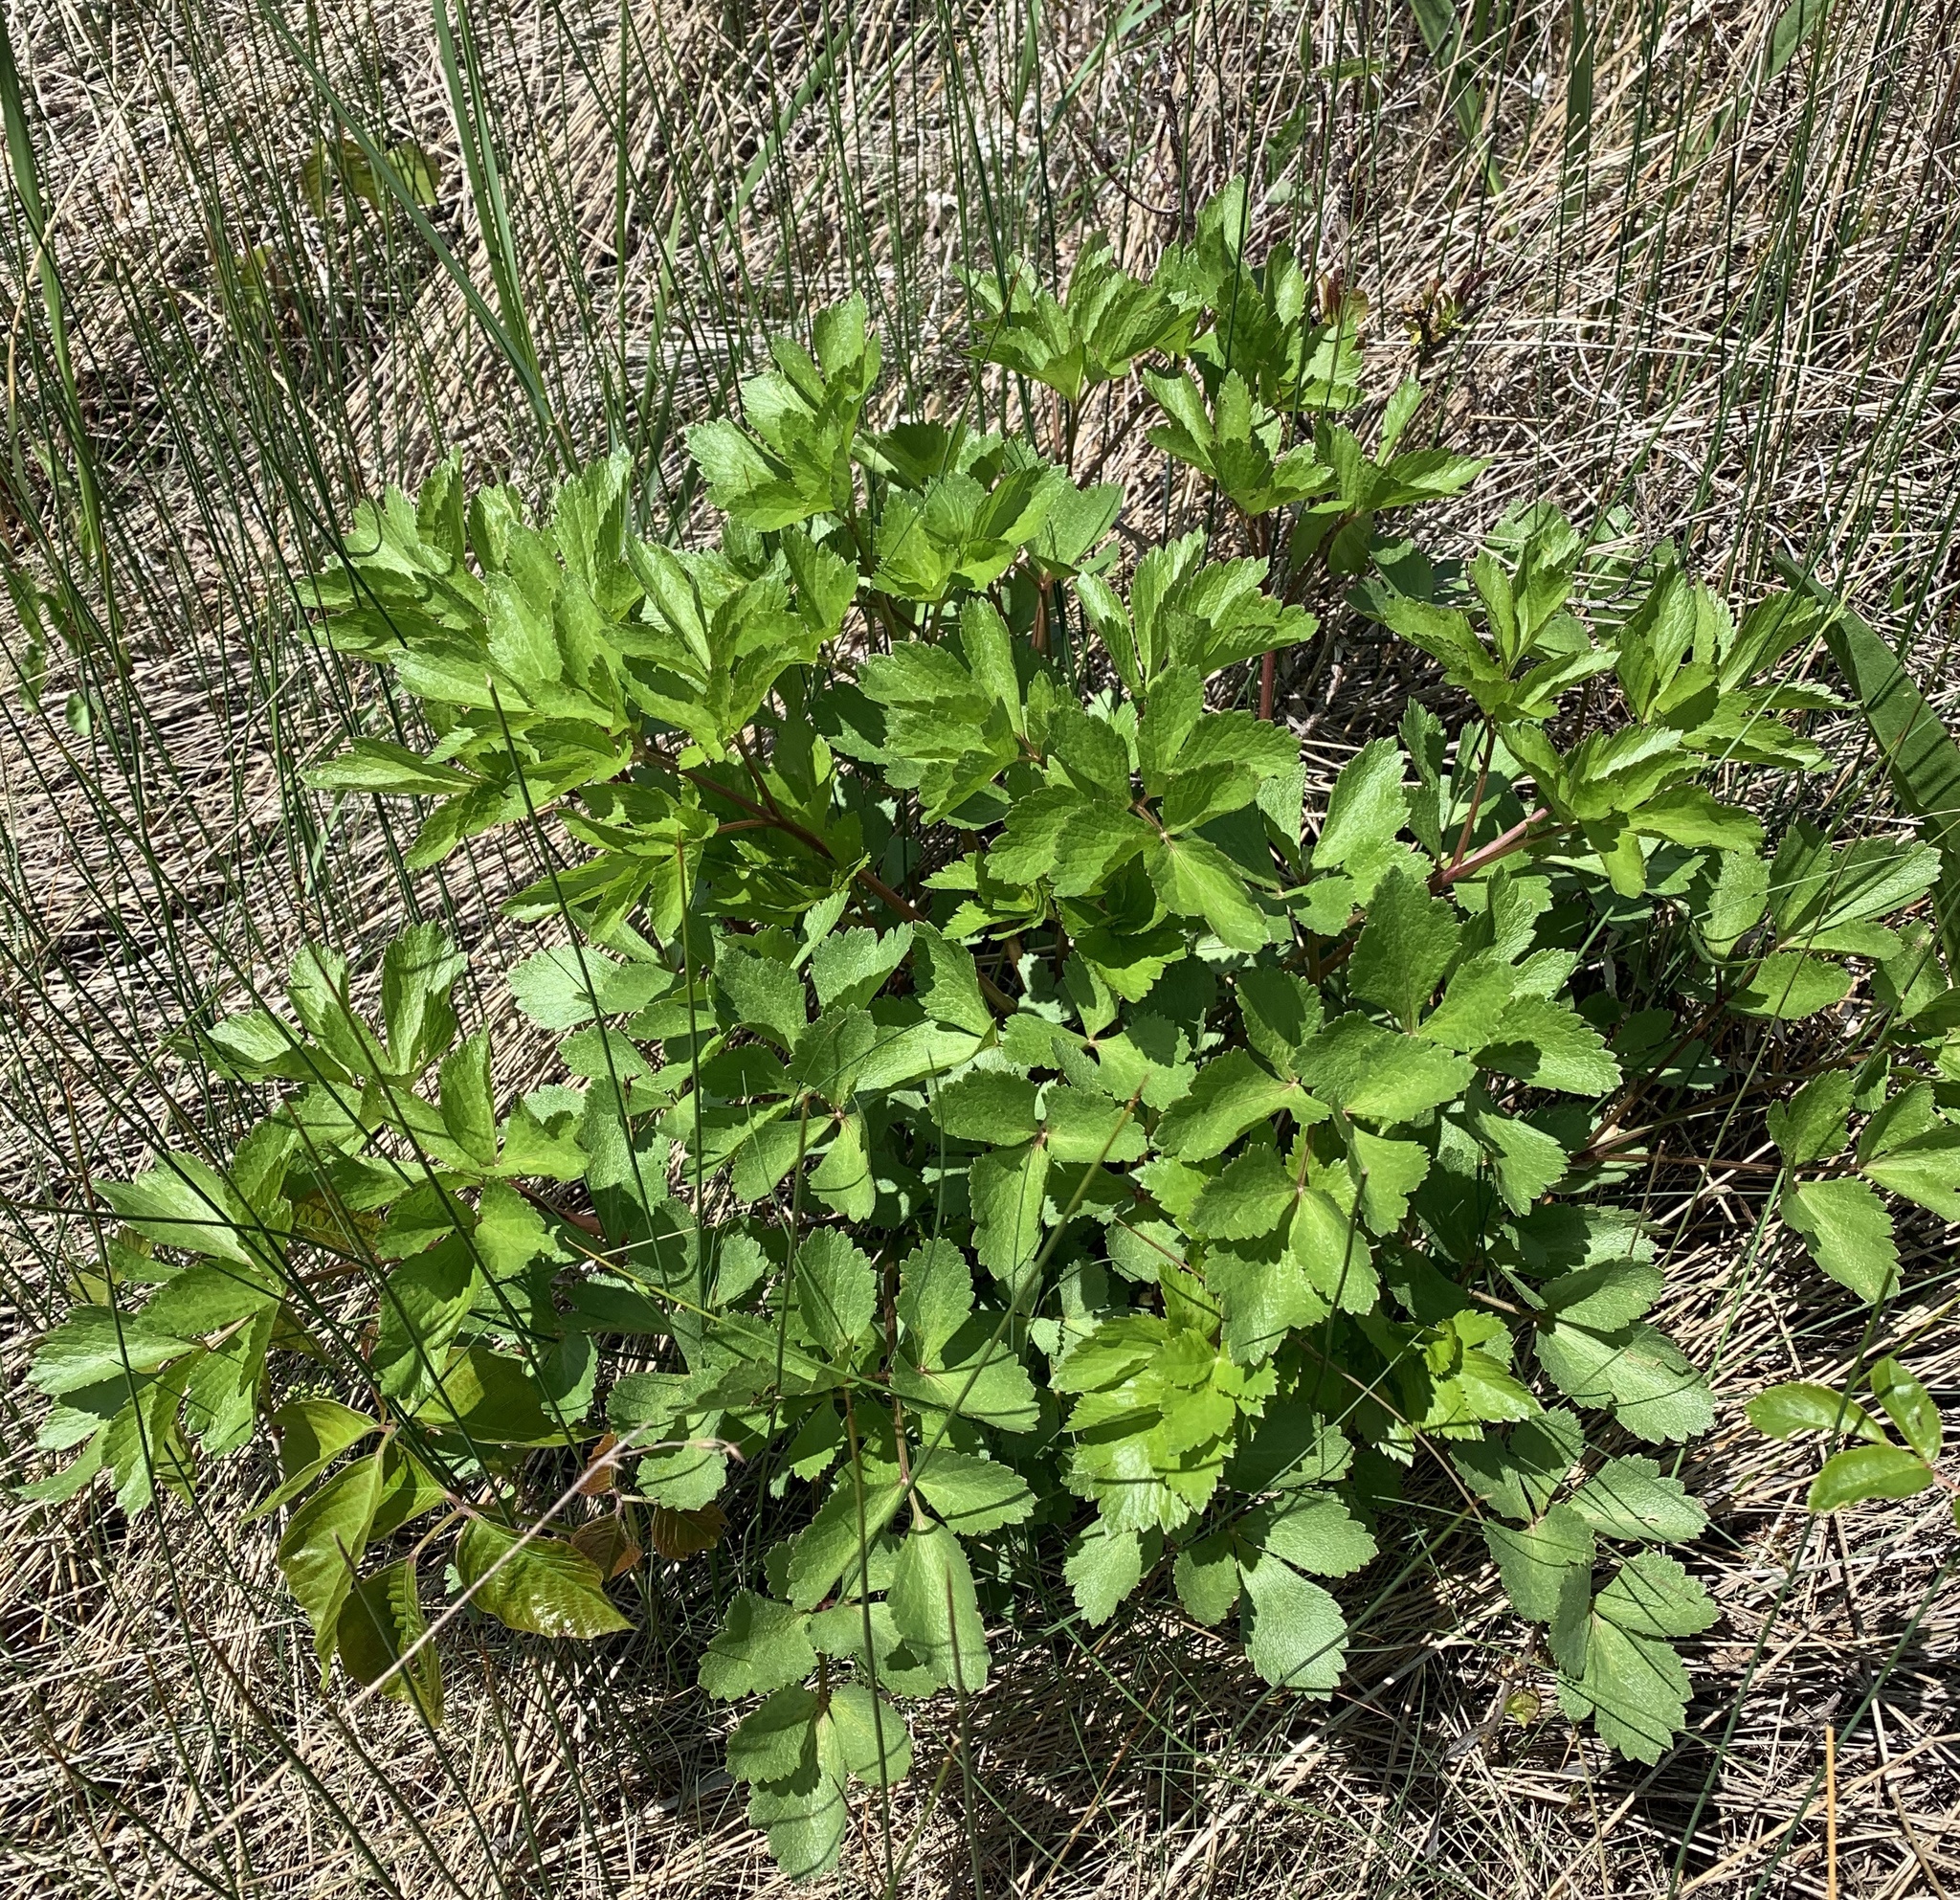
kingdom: Plantae
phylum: Tracheophyta
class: Magnoliopsida
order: Apiales
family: Apiaceae
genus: Ligusticum
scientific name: Ligusticum scothicum
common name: Beach lovage
